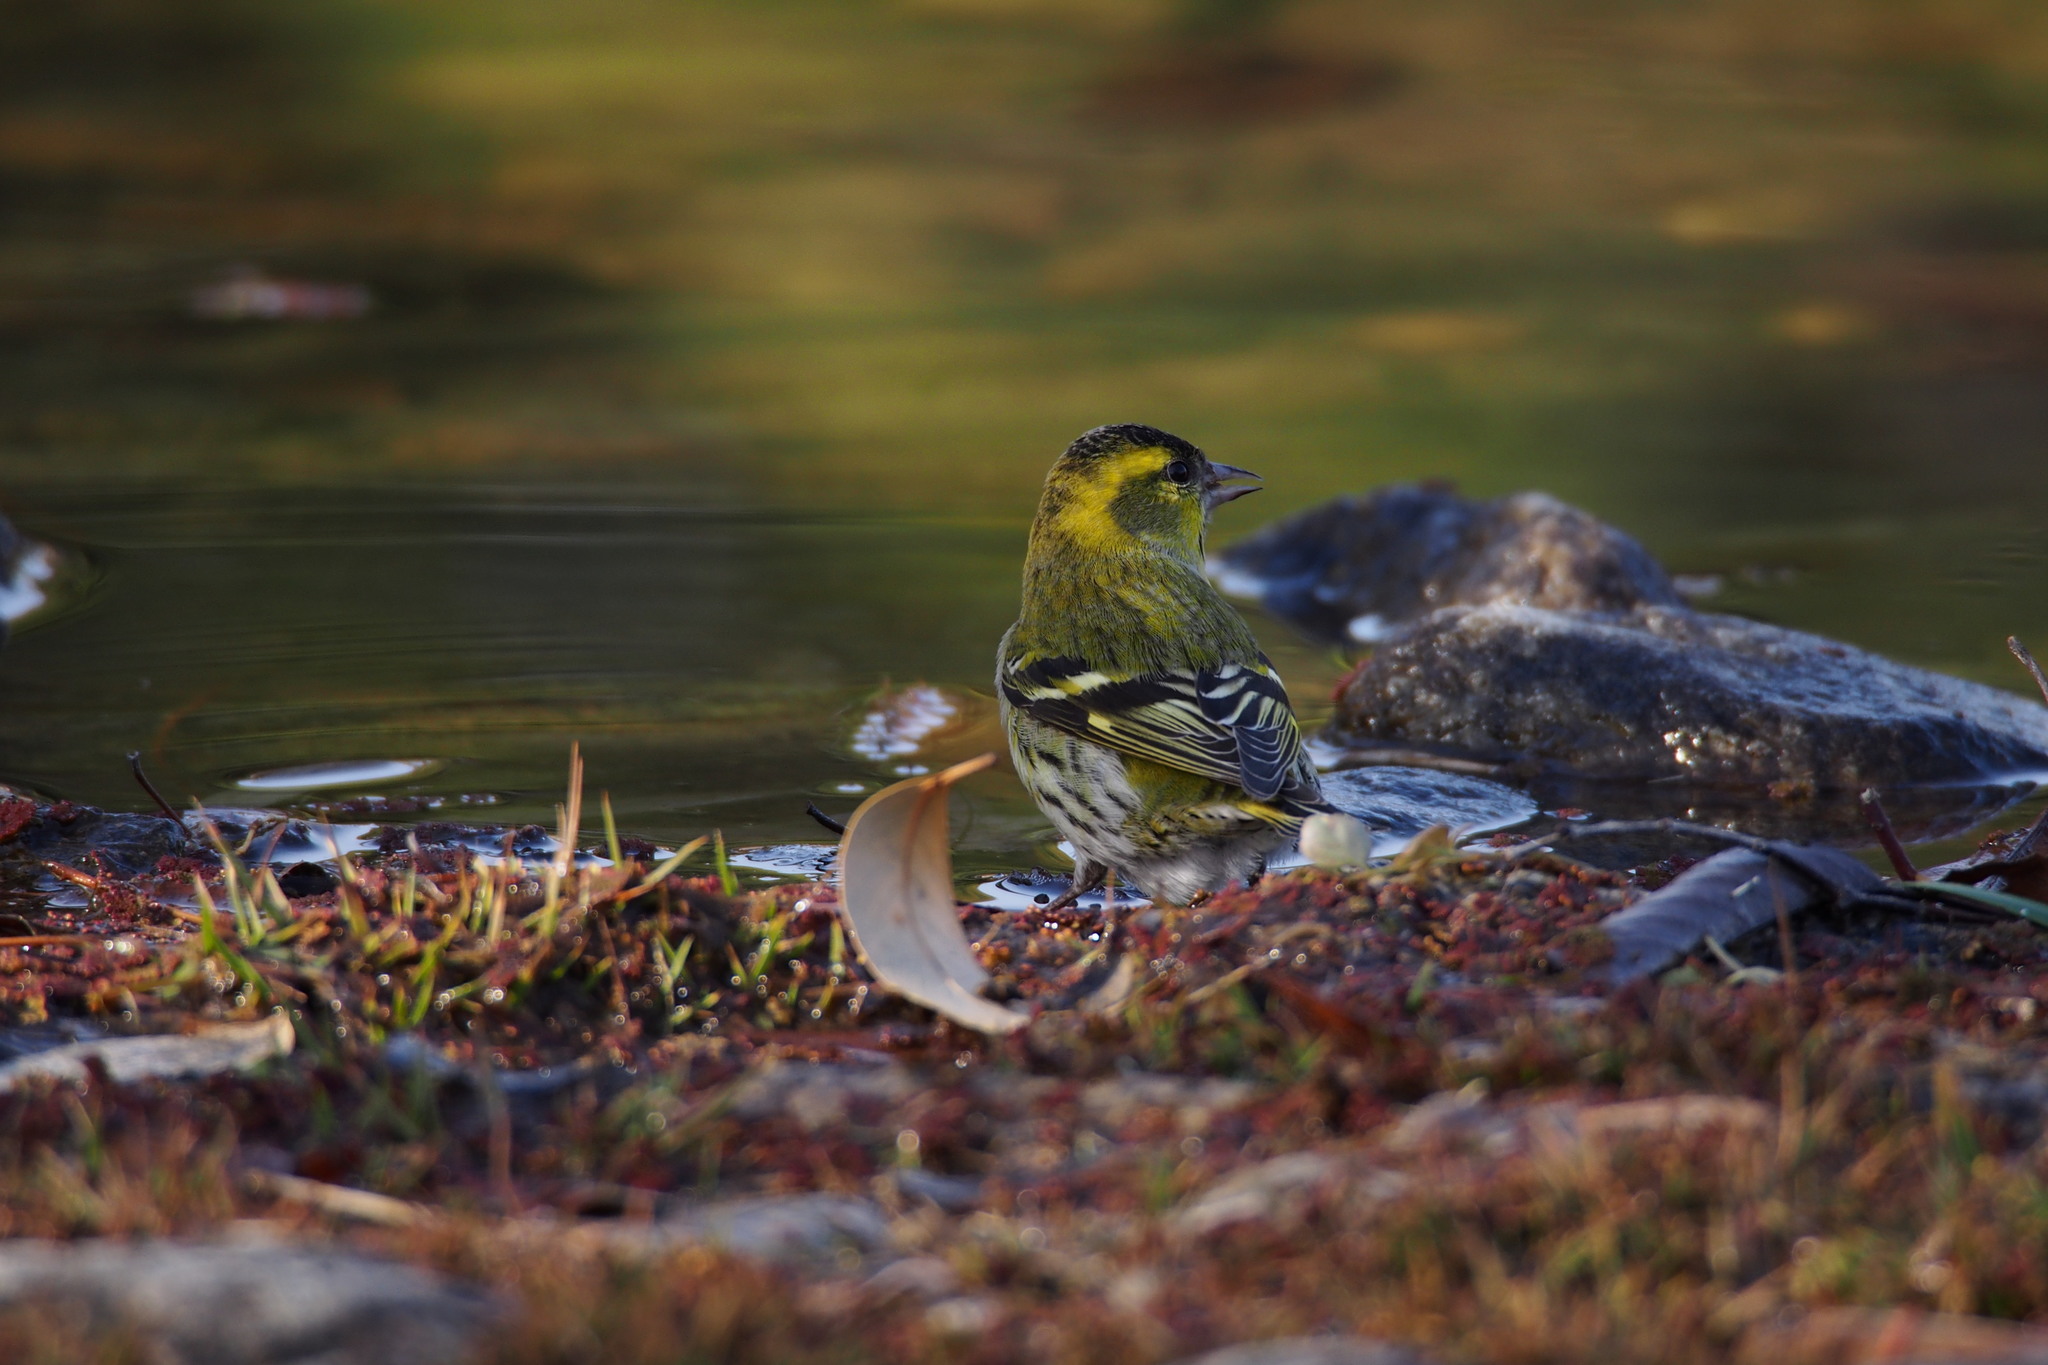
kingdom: Animalia
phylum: Chordata
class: Aves
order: Passeriformes
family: Fringillidae
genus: Spinus
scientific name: Spinus spinus
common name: Eurasian siskin
